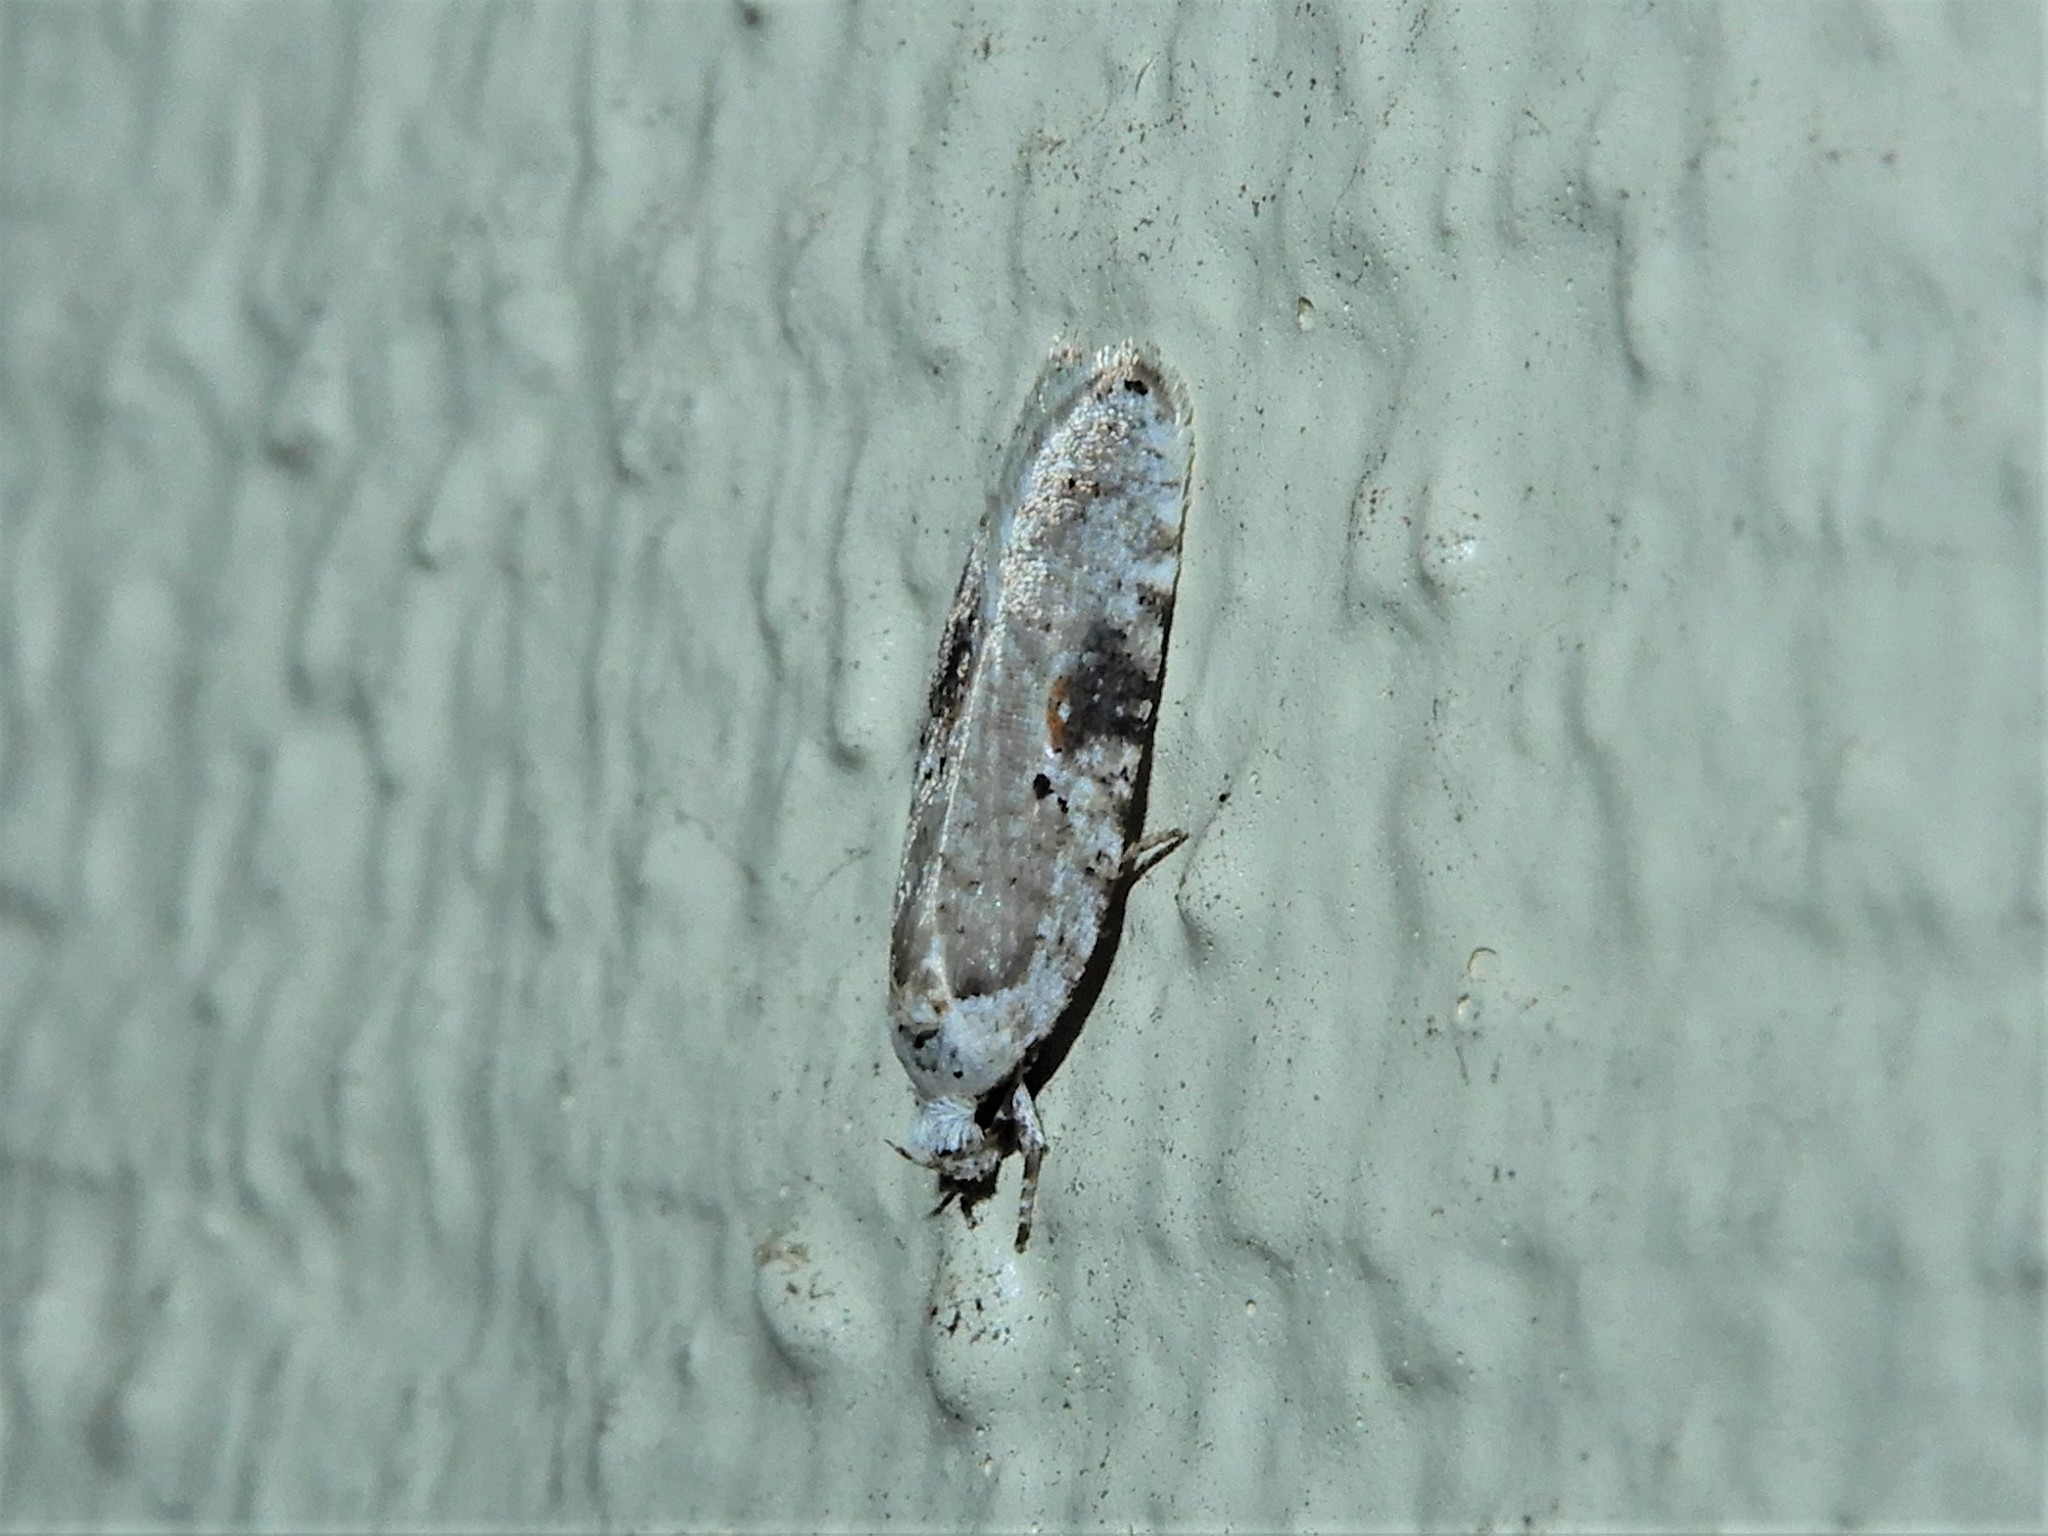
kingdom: Animalia
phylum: Arthropoda
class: Insecta
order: Lepidoptera
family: Depressariidae
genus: Agonopterix
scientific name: Agonopterix alstroemeriana
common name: Moth
